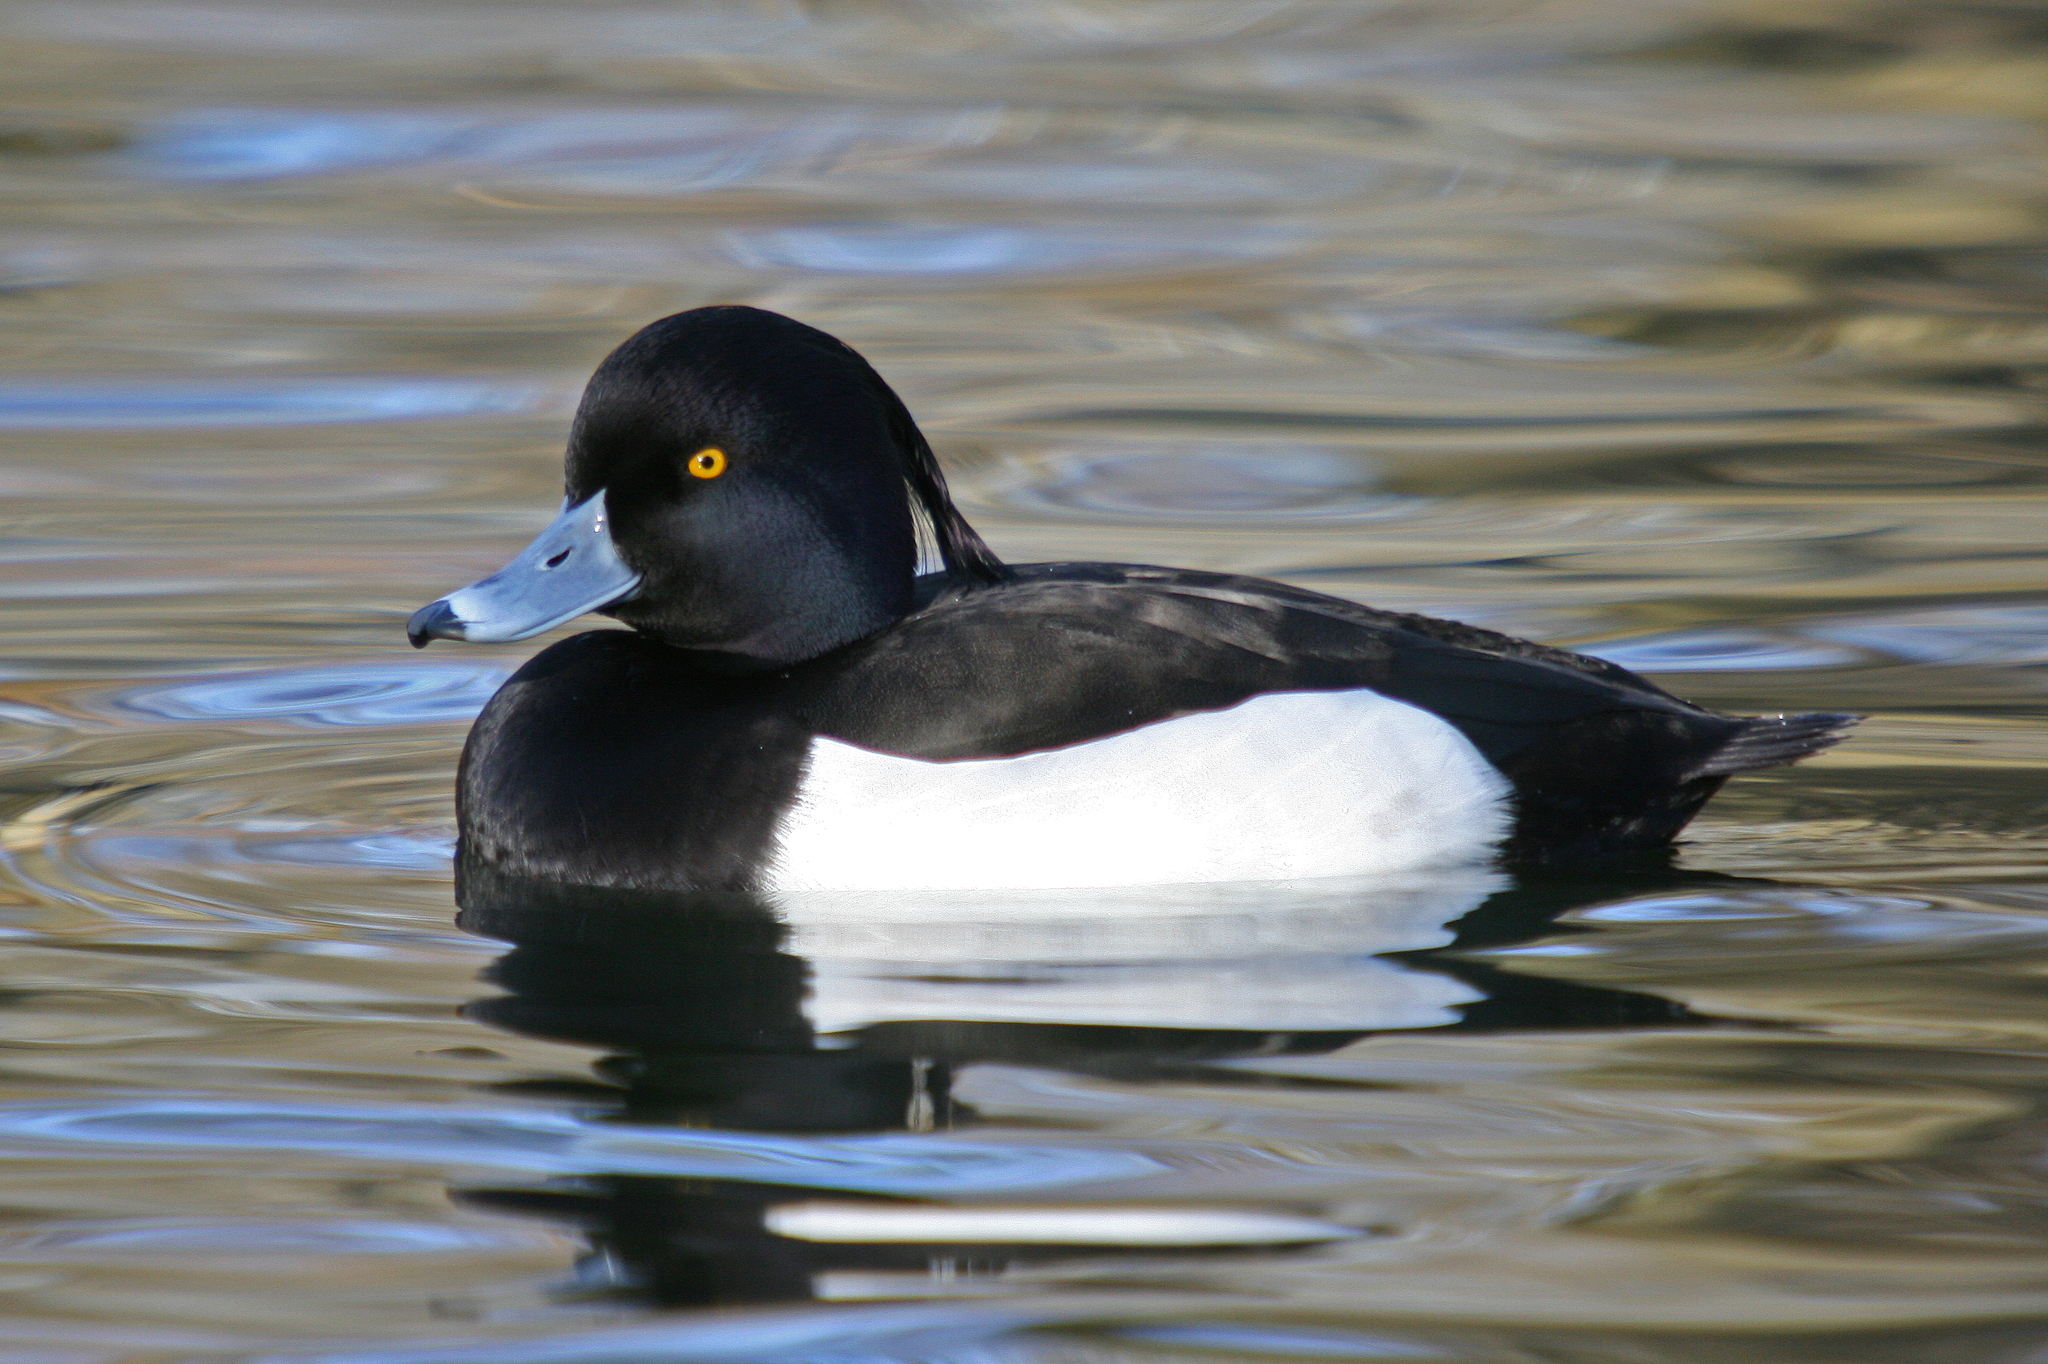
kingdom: Animalia
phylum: Chordata
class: Aves
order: Anseriformes
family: Anatidae
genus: Aythya
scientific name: Aythya fuligula
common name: Tufted duck
